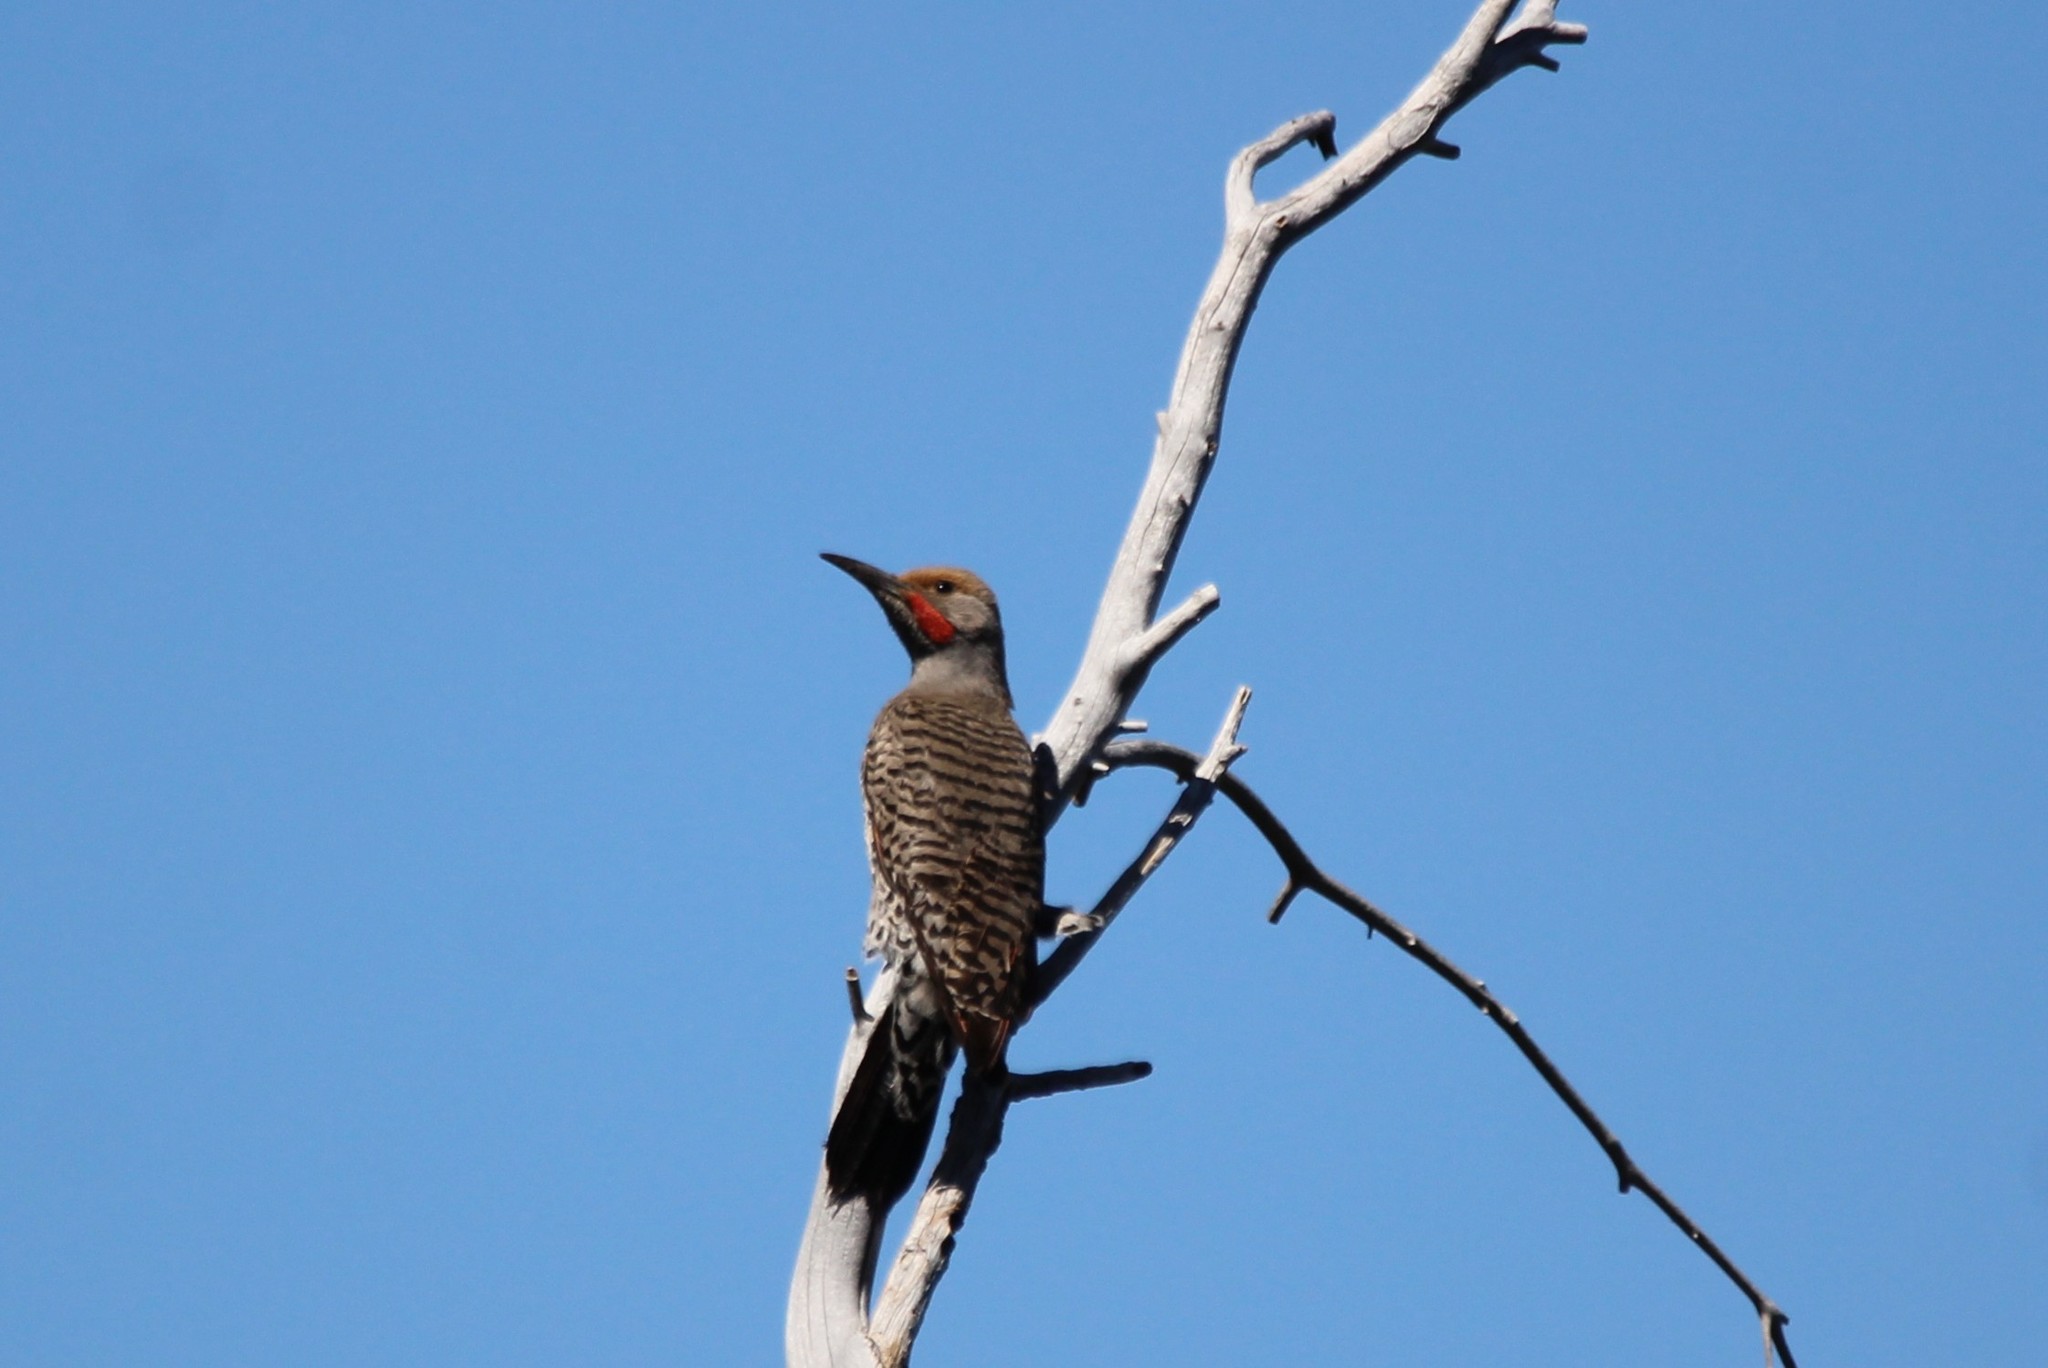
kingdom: Animalia
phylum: Chordata
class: Aves
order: Piciformes
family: Picidae
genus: Colaptes
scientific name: Colaptes auratus
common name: Northern flicker
